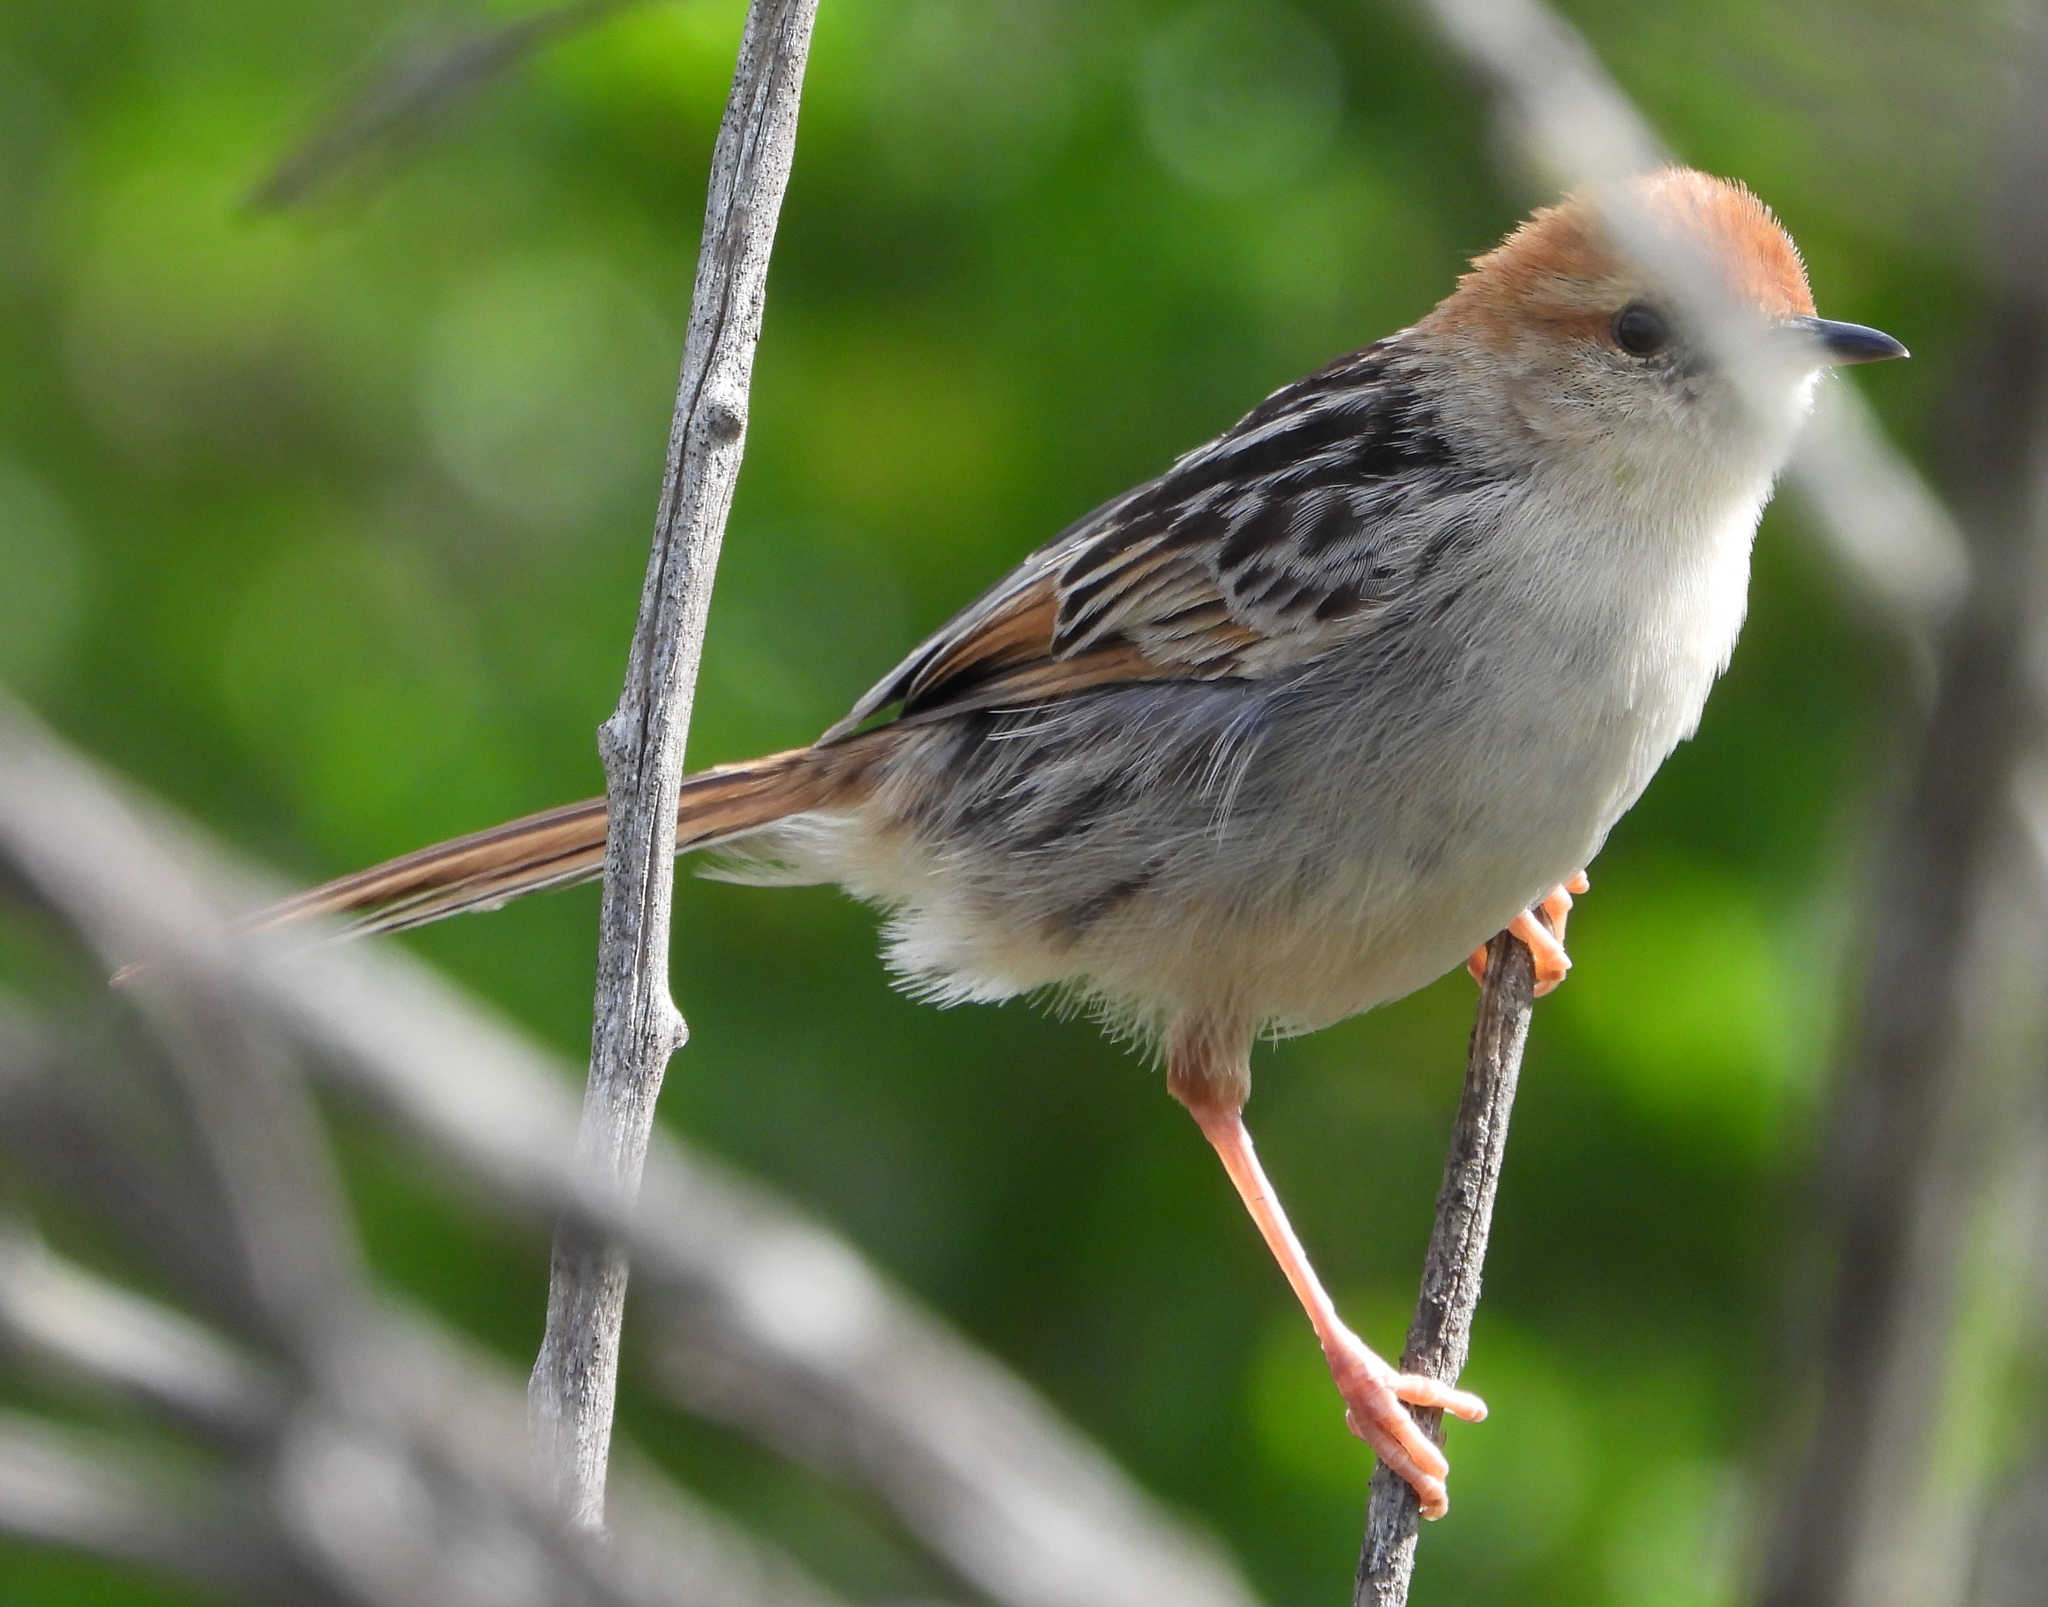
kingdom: Animalia
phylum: Chordata
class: Aves
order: Passeriformes
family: Cisticolidae
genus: Cisticola
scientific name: Cisticola tinniens
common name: Levaillant's cisticola
